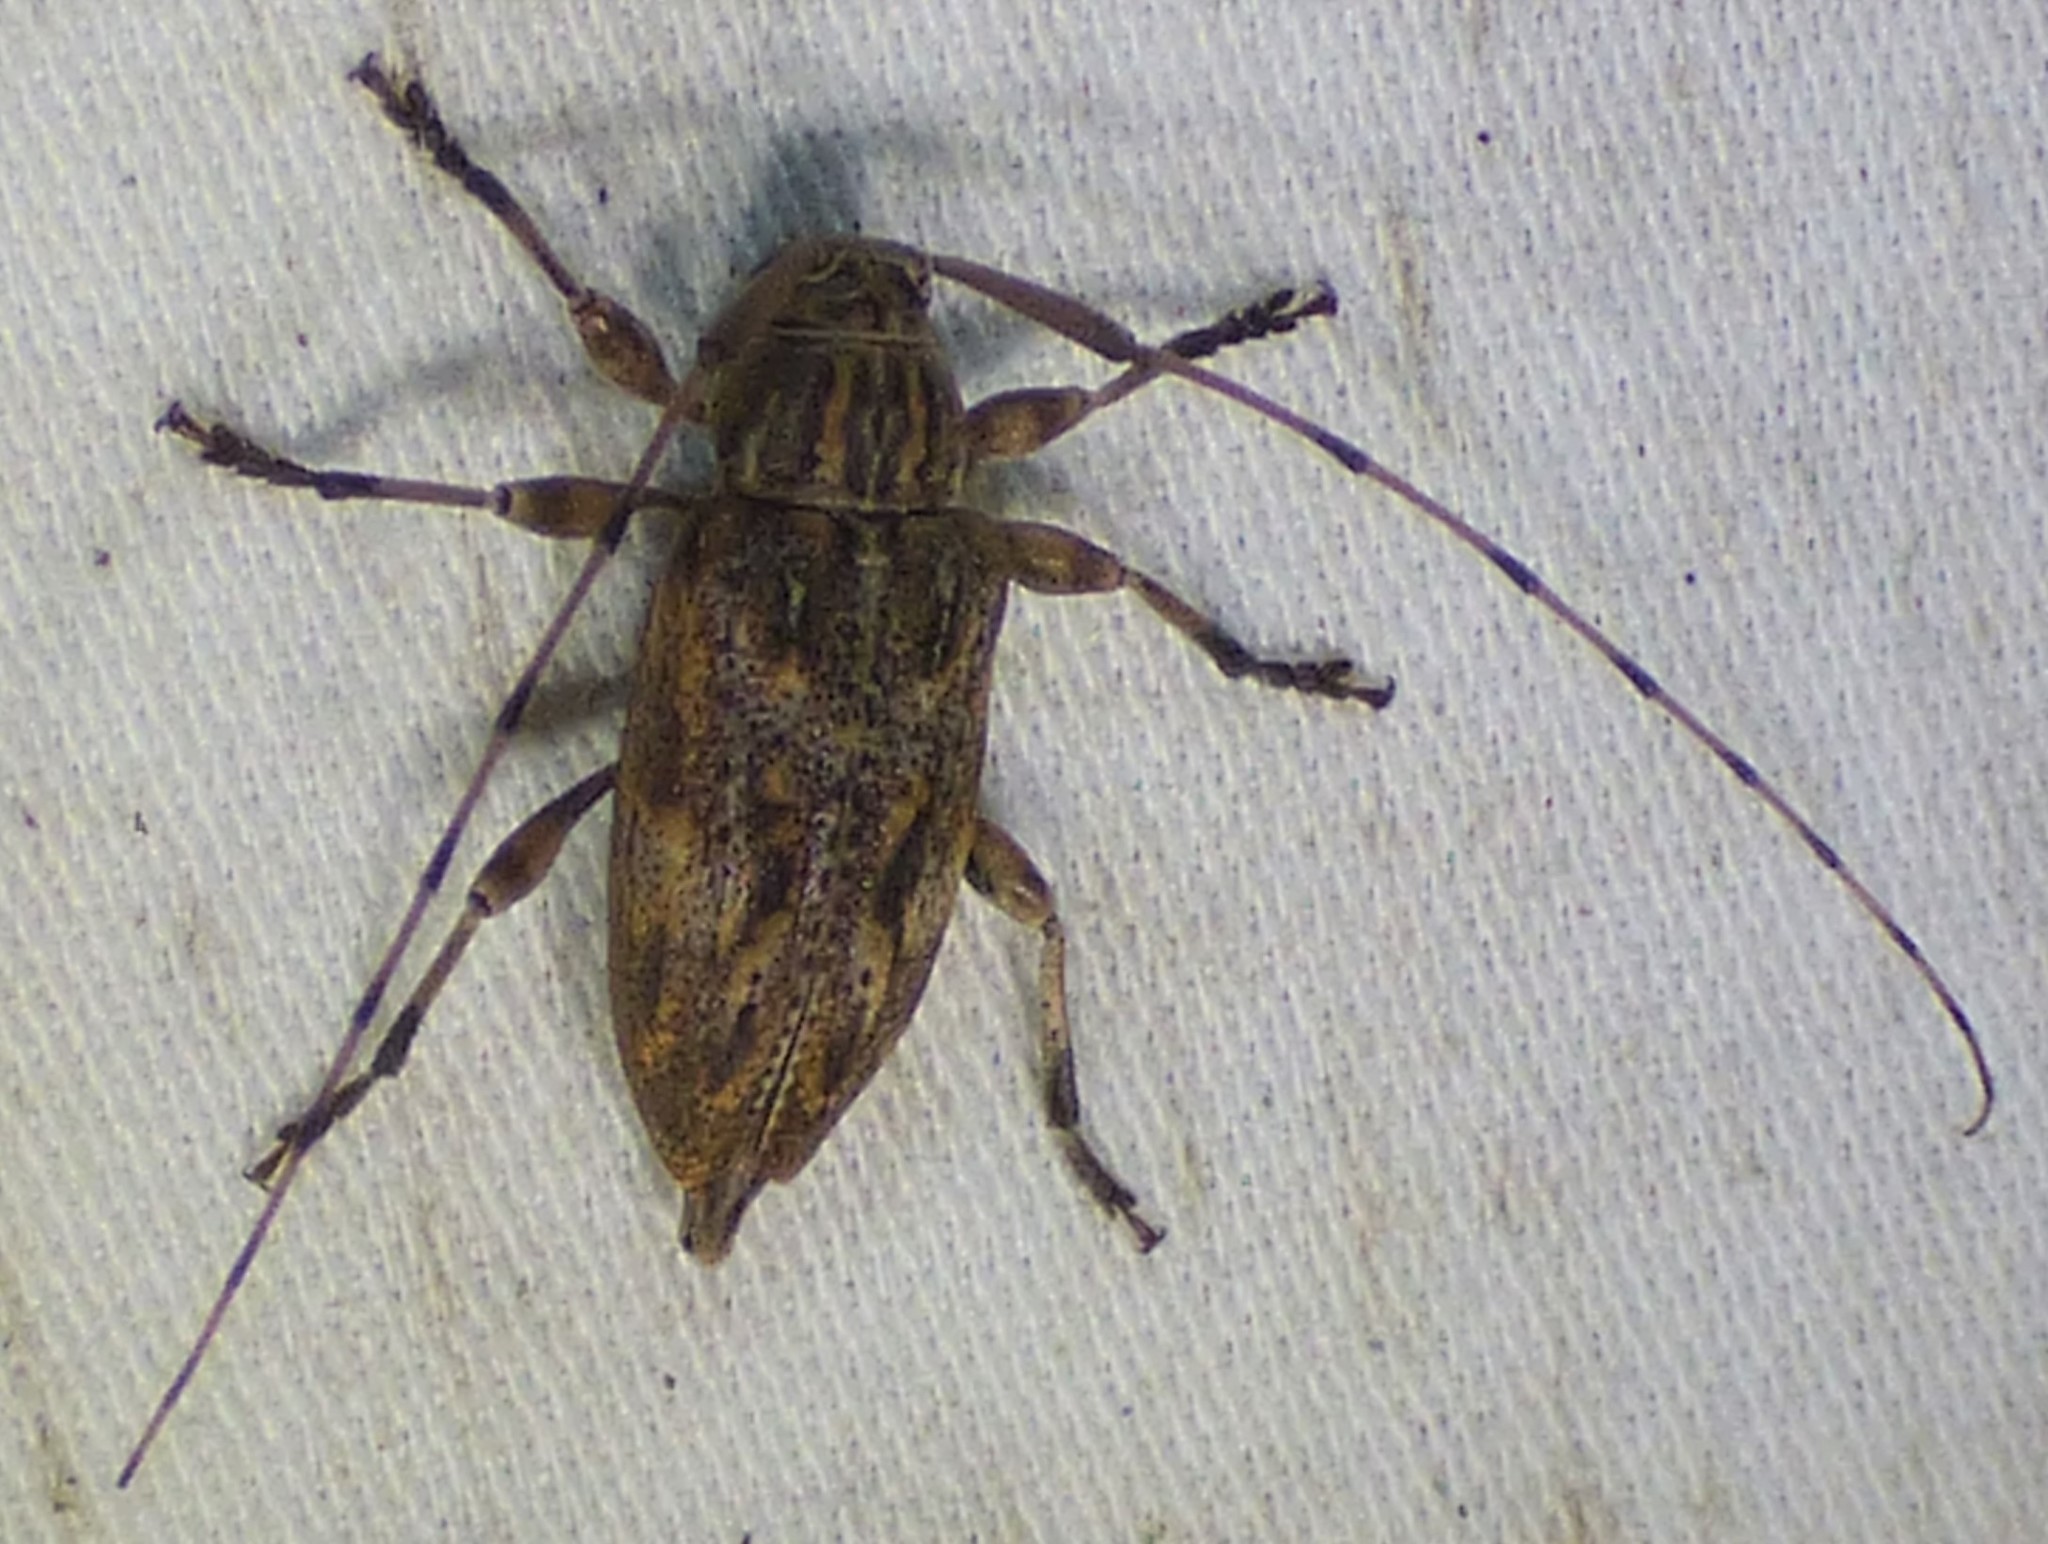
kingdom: Animalia
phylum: Arthropoda
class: Insecta
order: Coleoptera
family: Cerambycidae
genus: Atrypanius
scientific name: Atrypanius haldemani
